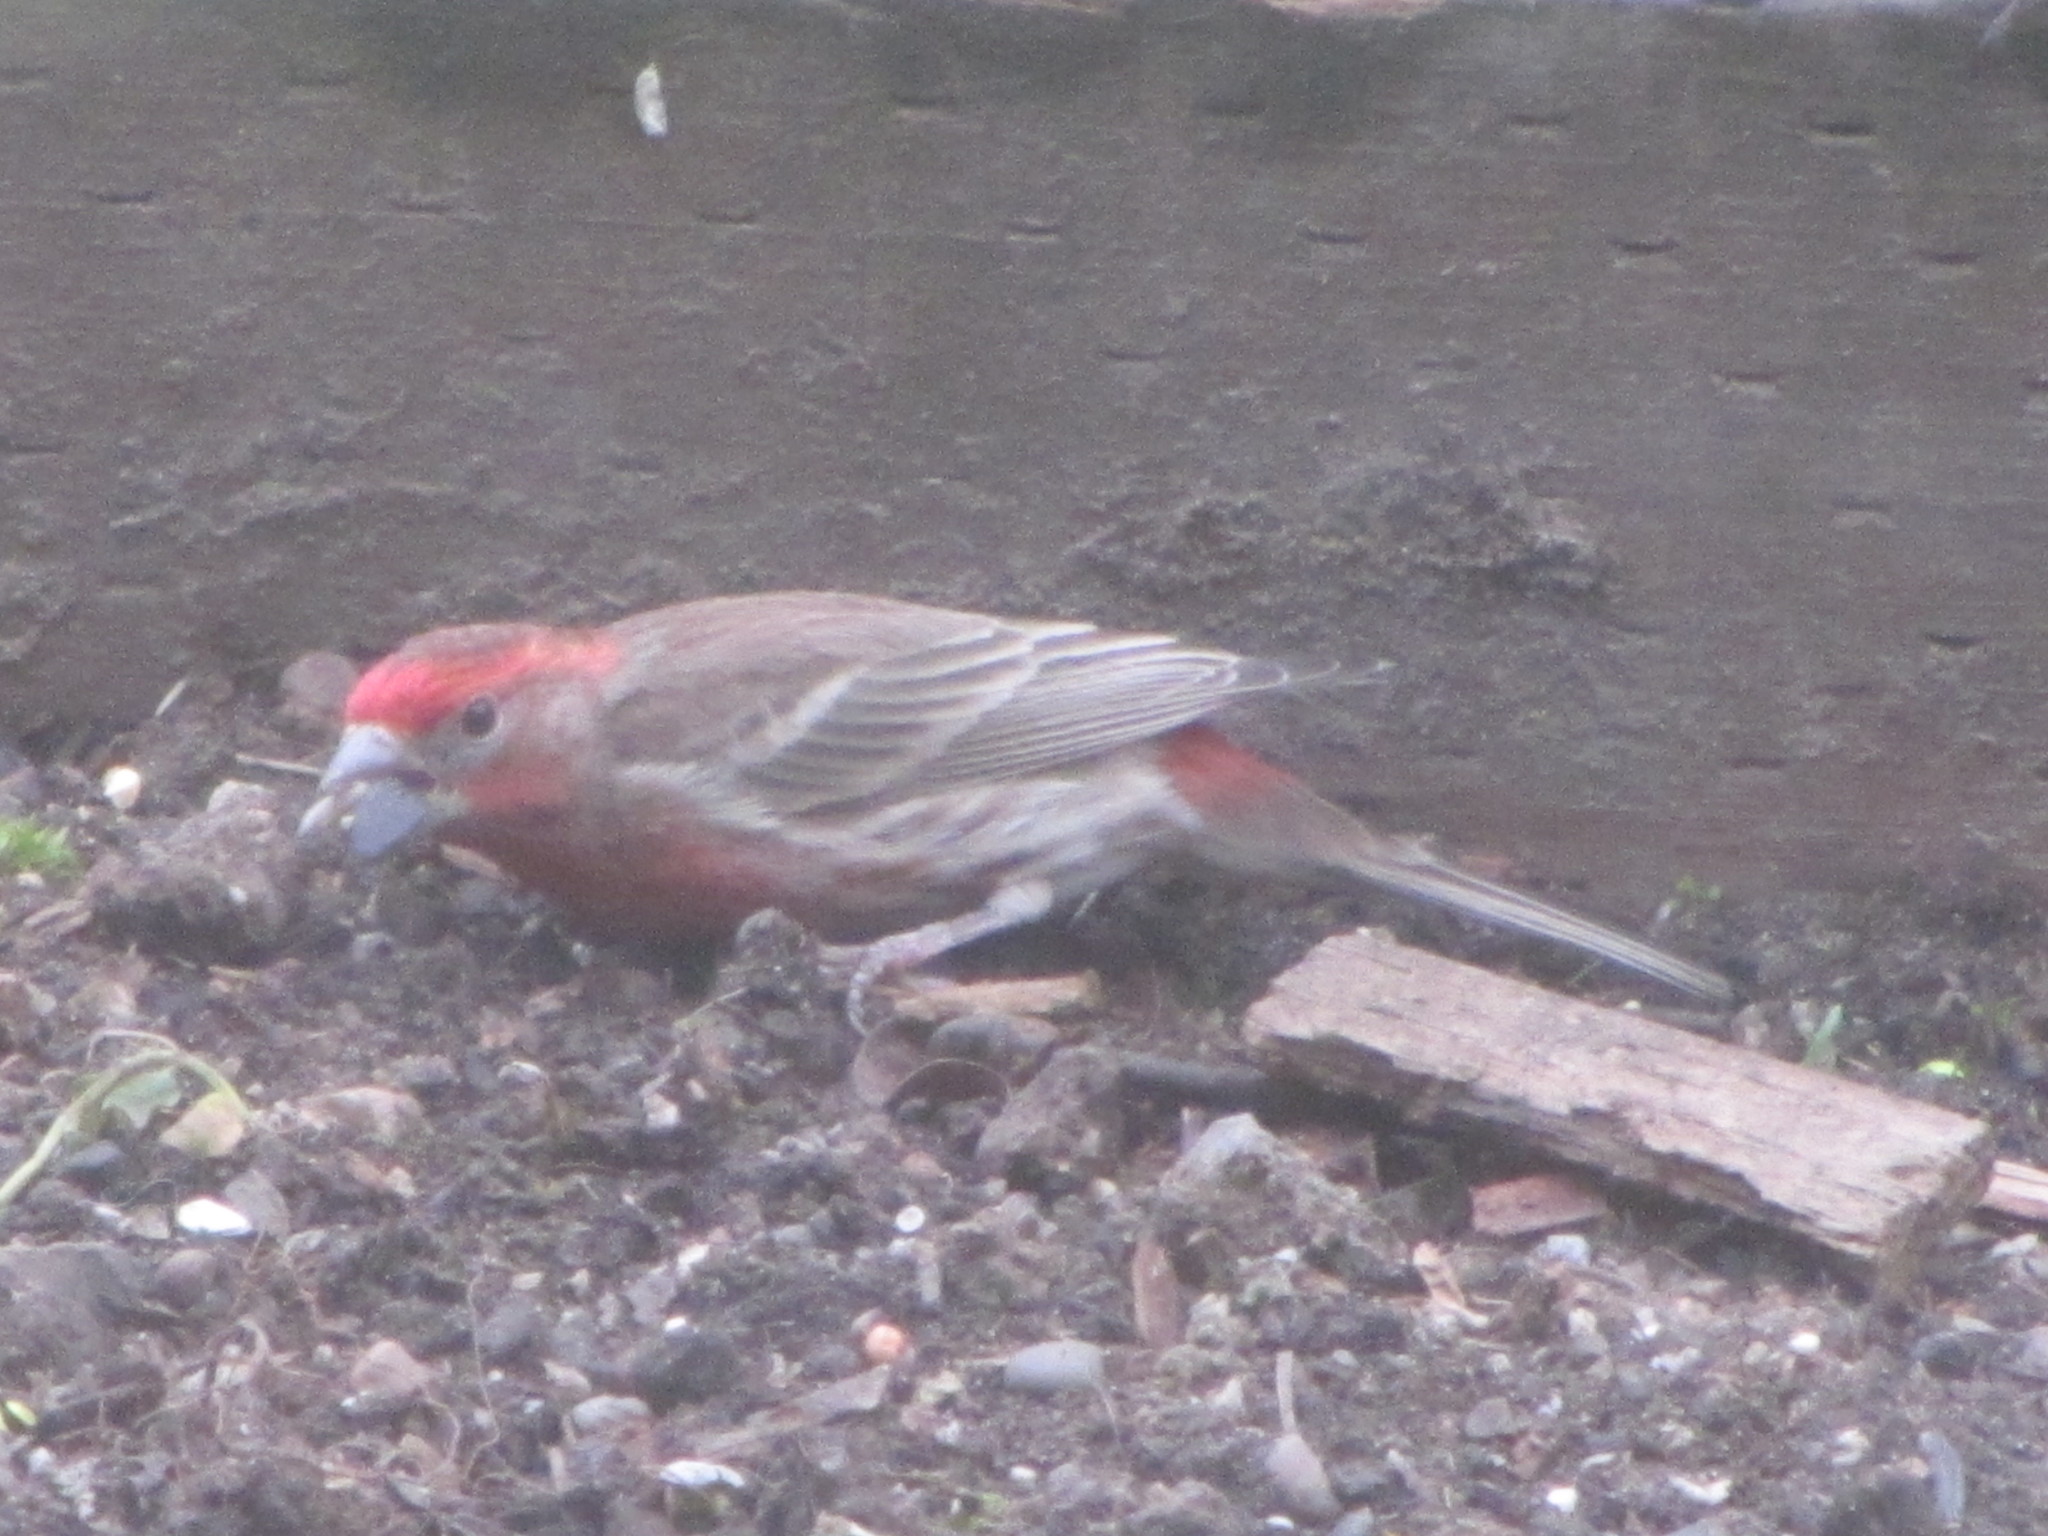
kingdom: Animalia
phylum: Chordata
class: Aves
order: Passeriformes
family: Fringillidae
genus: Haemorhous
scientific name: Haemorhous mexicanus
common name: House finch
